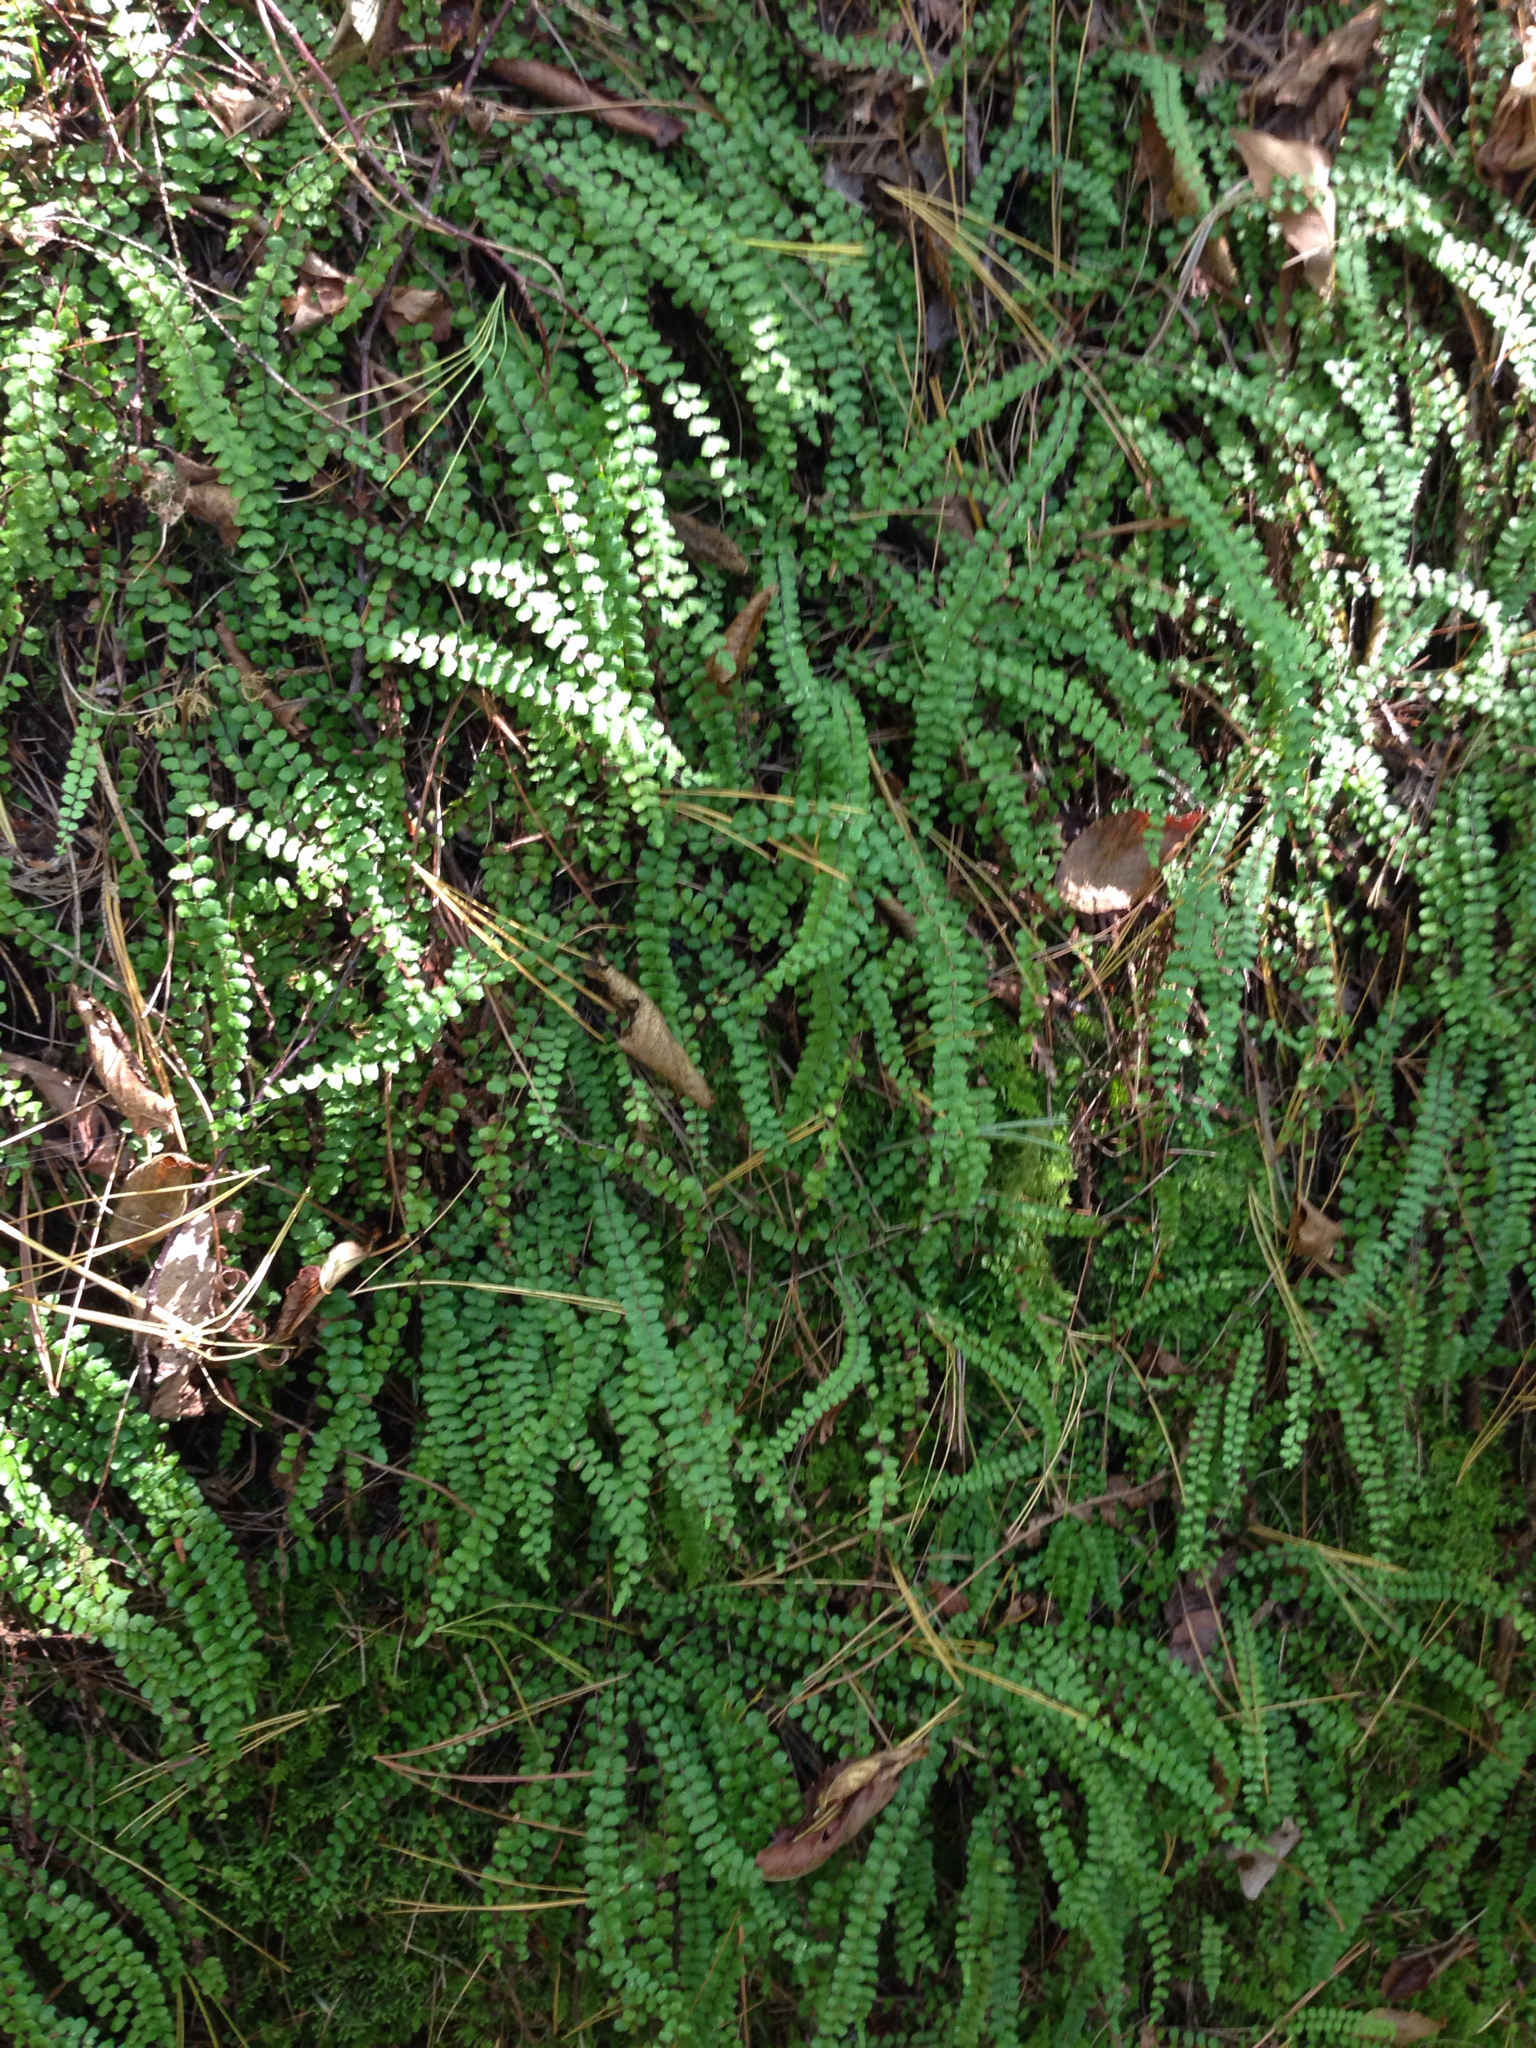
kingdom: Plantae
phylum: Tracheophyta
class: Polypodiopsida
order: Polypodiales
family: Aspleniaceae
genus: Asplenium
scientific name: Asplenium trichomanes
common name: Maidenhair spleenwort
